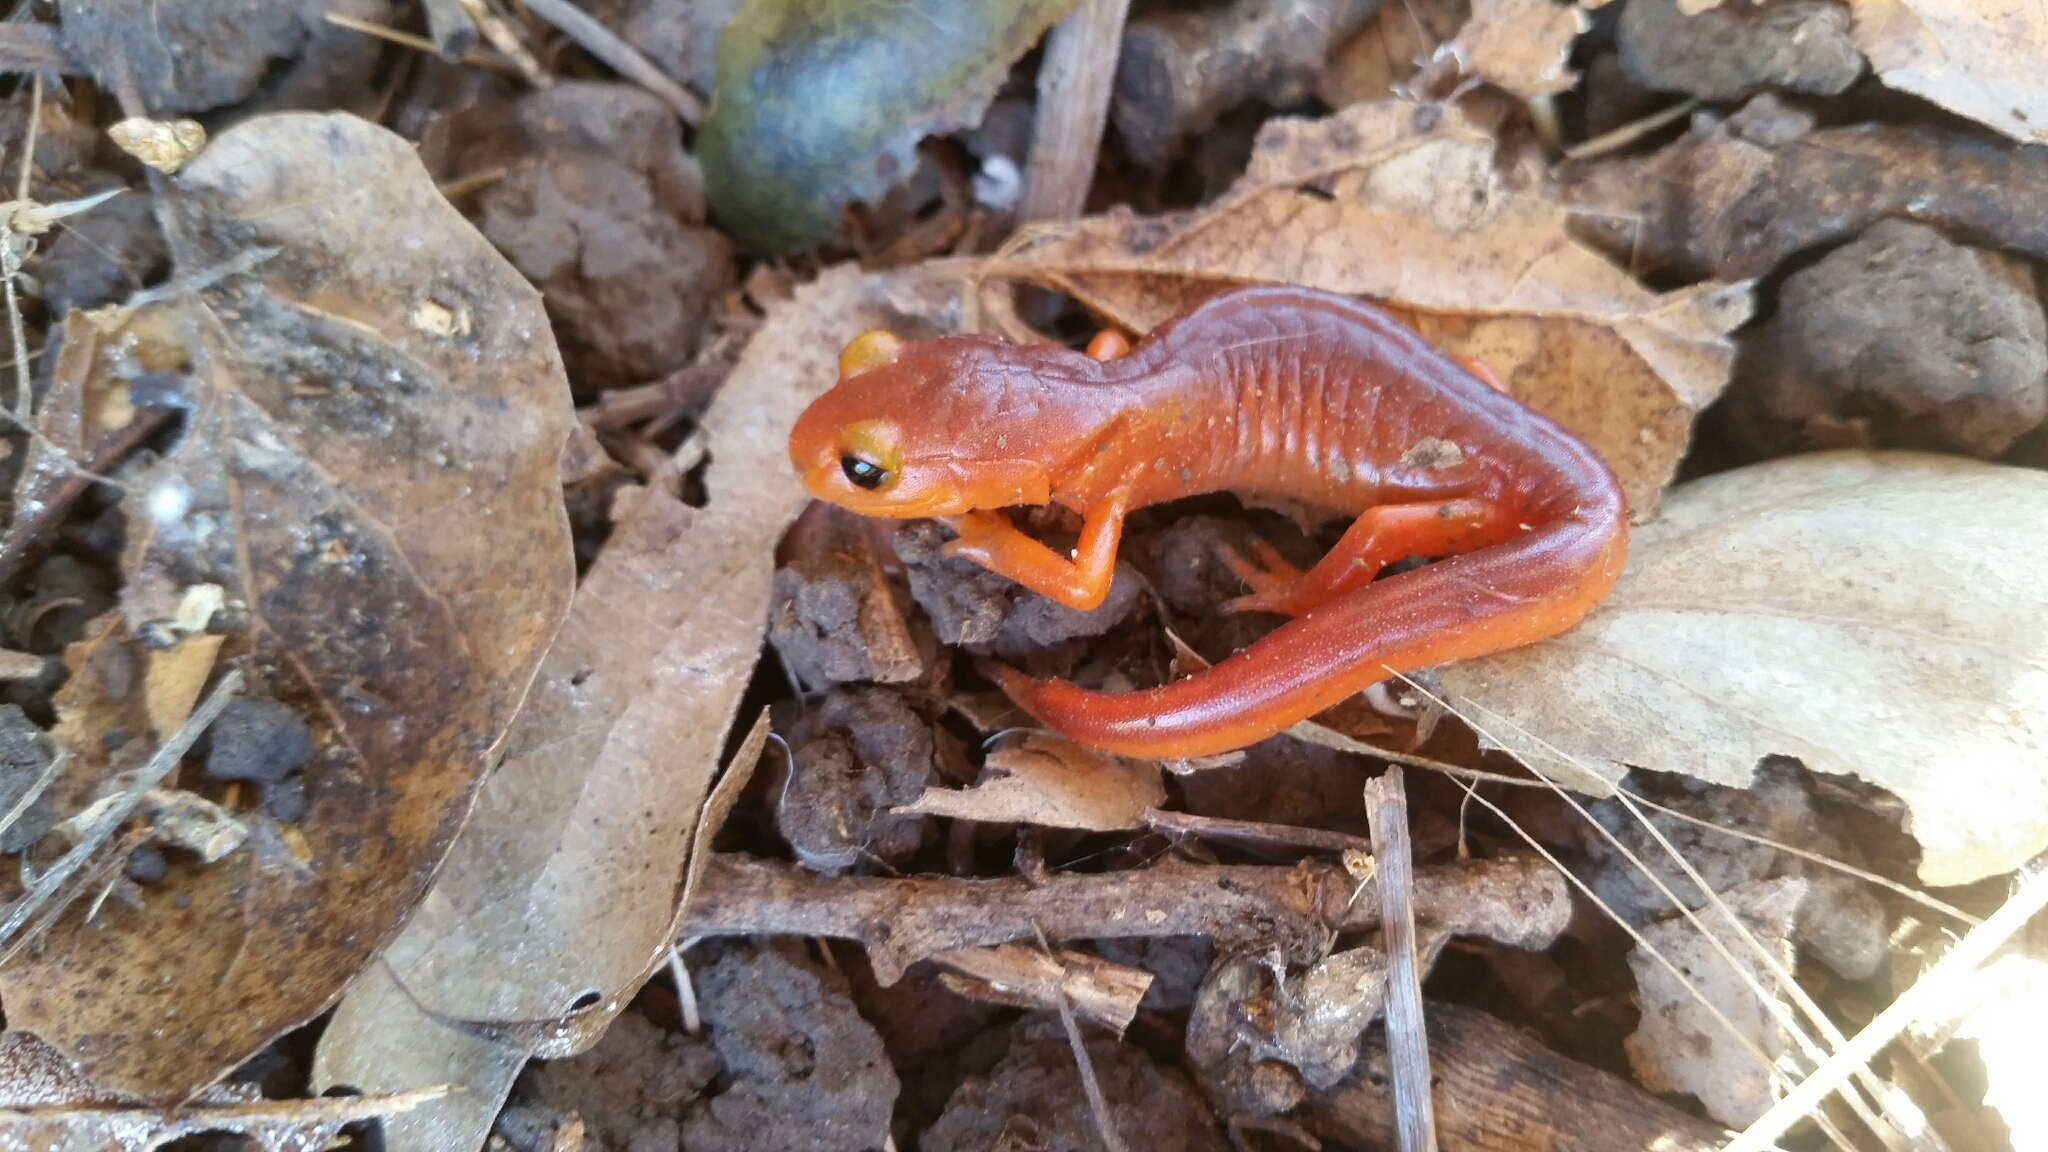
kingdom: Animalia
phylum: Chordata
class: Amphibia
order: Caudata
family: Plethodontidae
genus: Ensatina
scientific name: Ensatina eschscholtzii
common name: Ensatina
